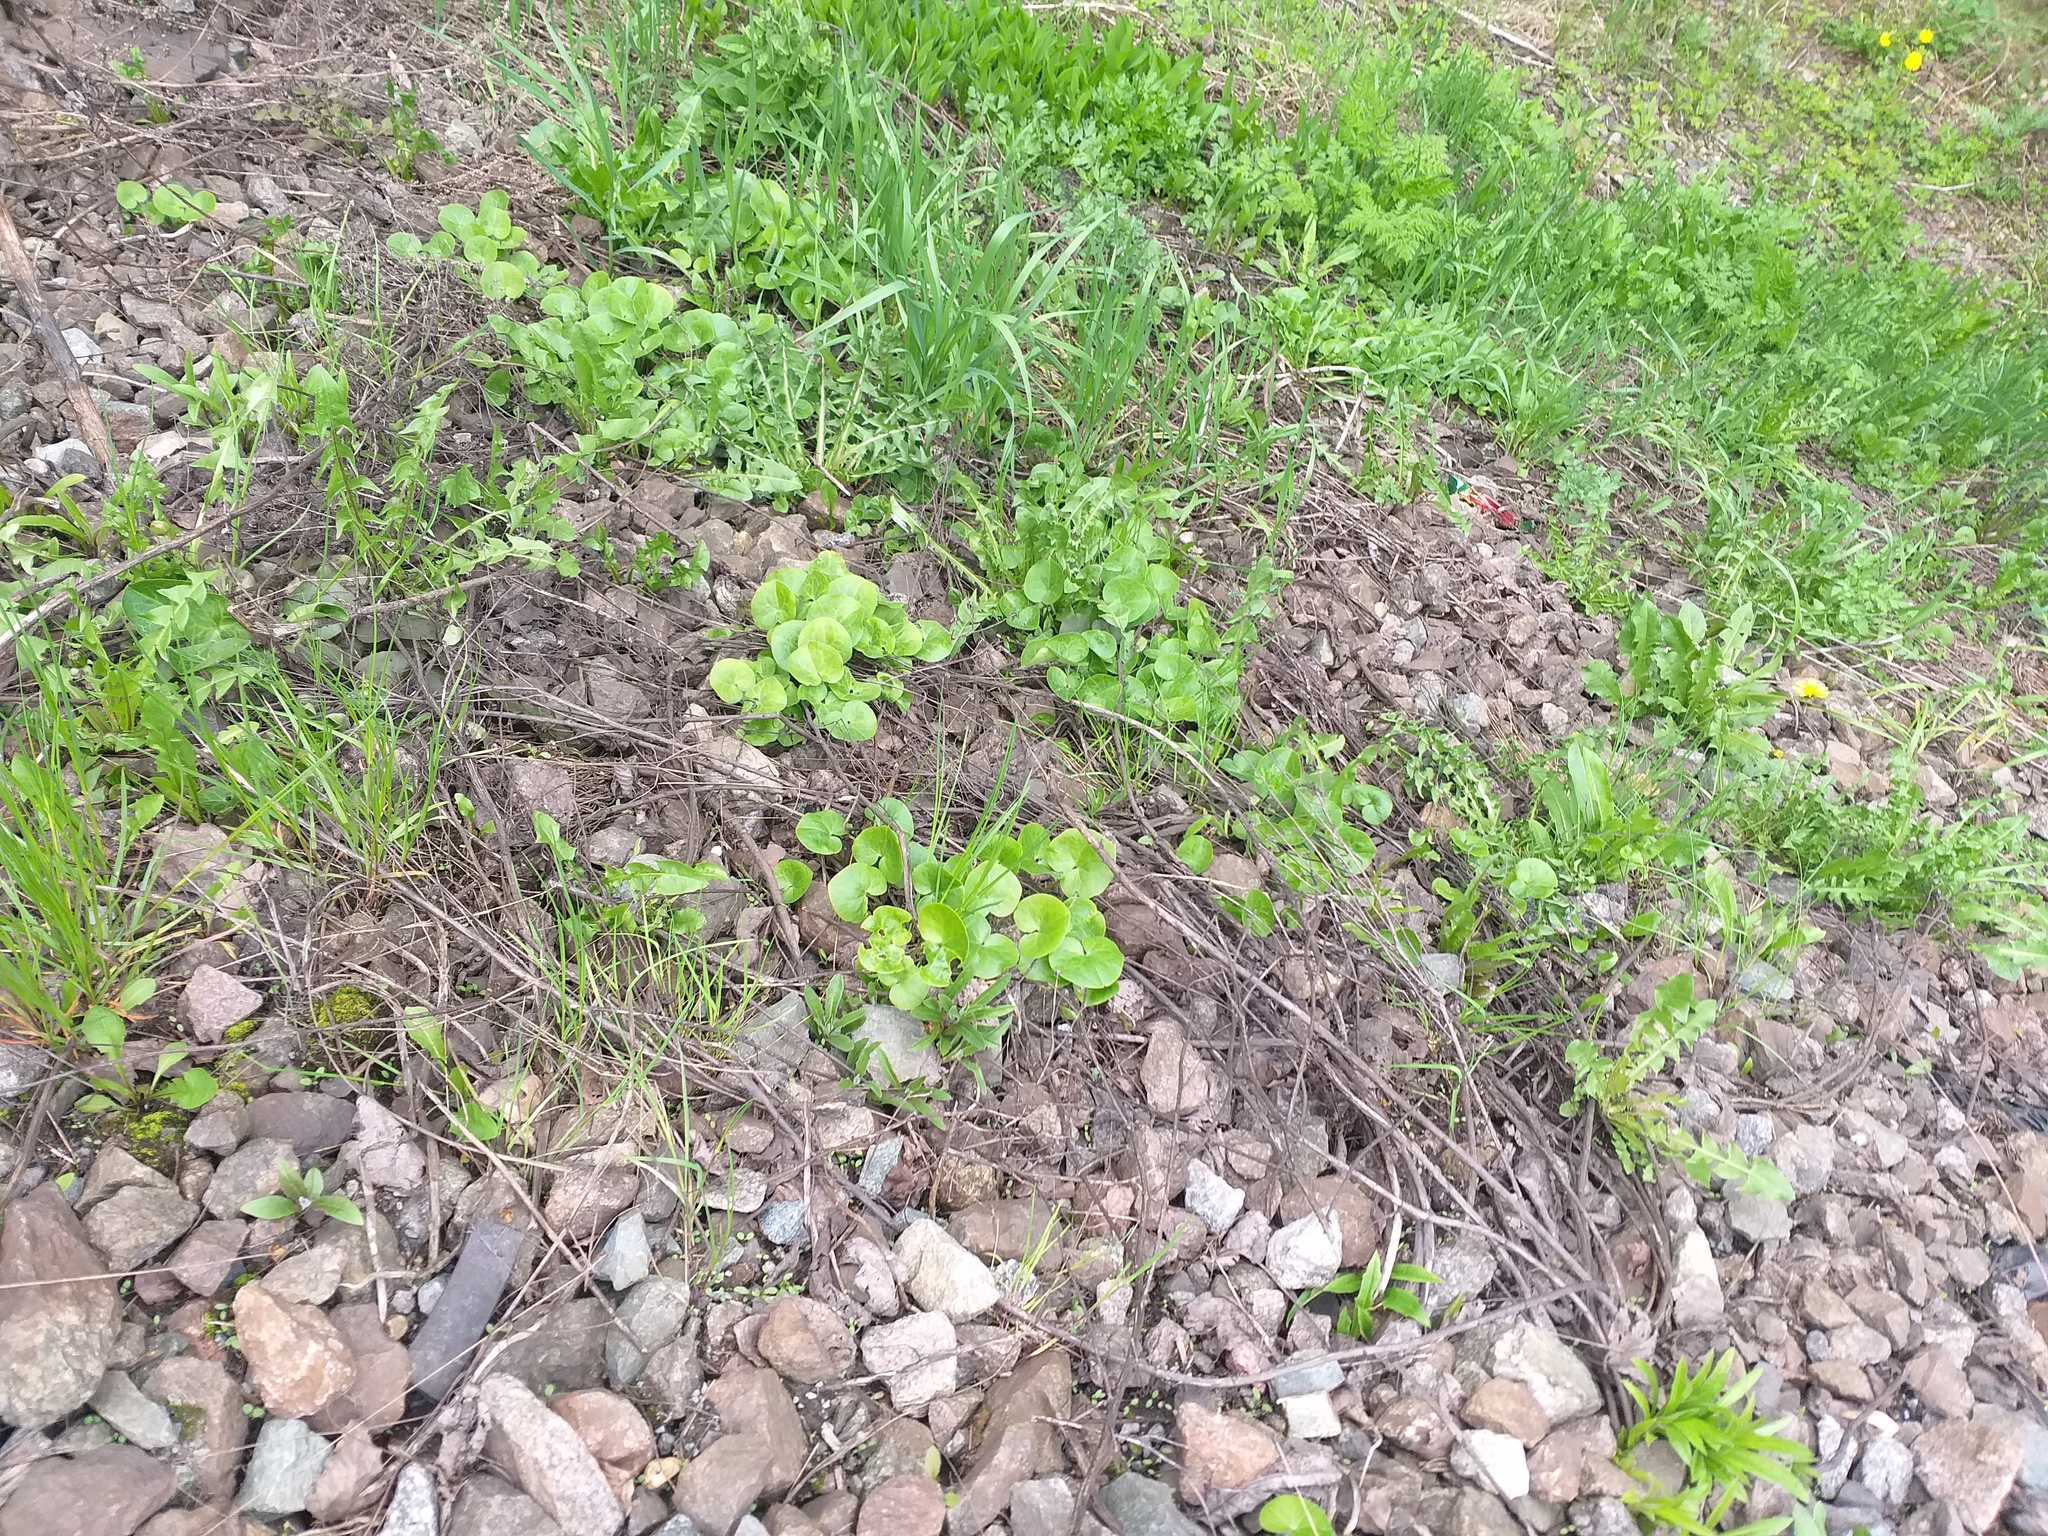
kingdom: Plantae
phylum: Tracheophyta
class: Magnoliopsida
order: Piperales
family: Aristolochiaceae
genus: Asarum
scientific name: Asarum europaeum
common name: Asarabacca
